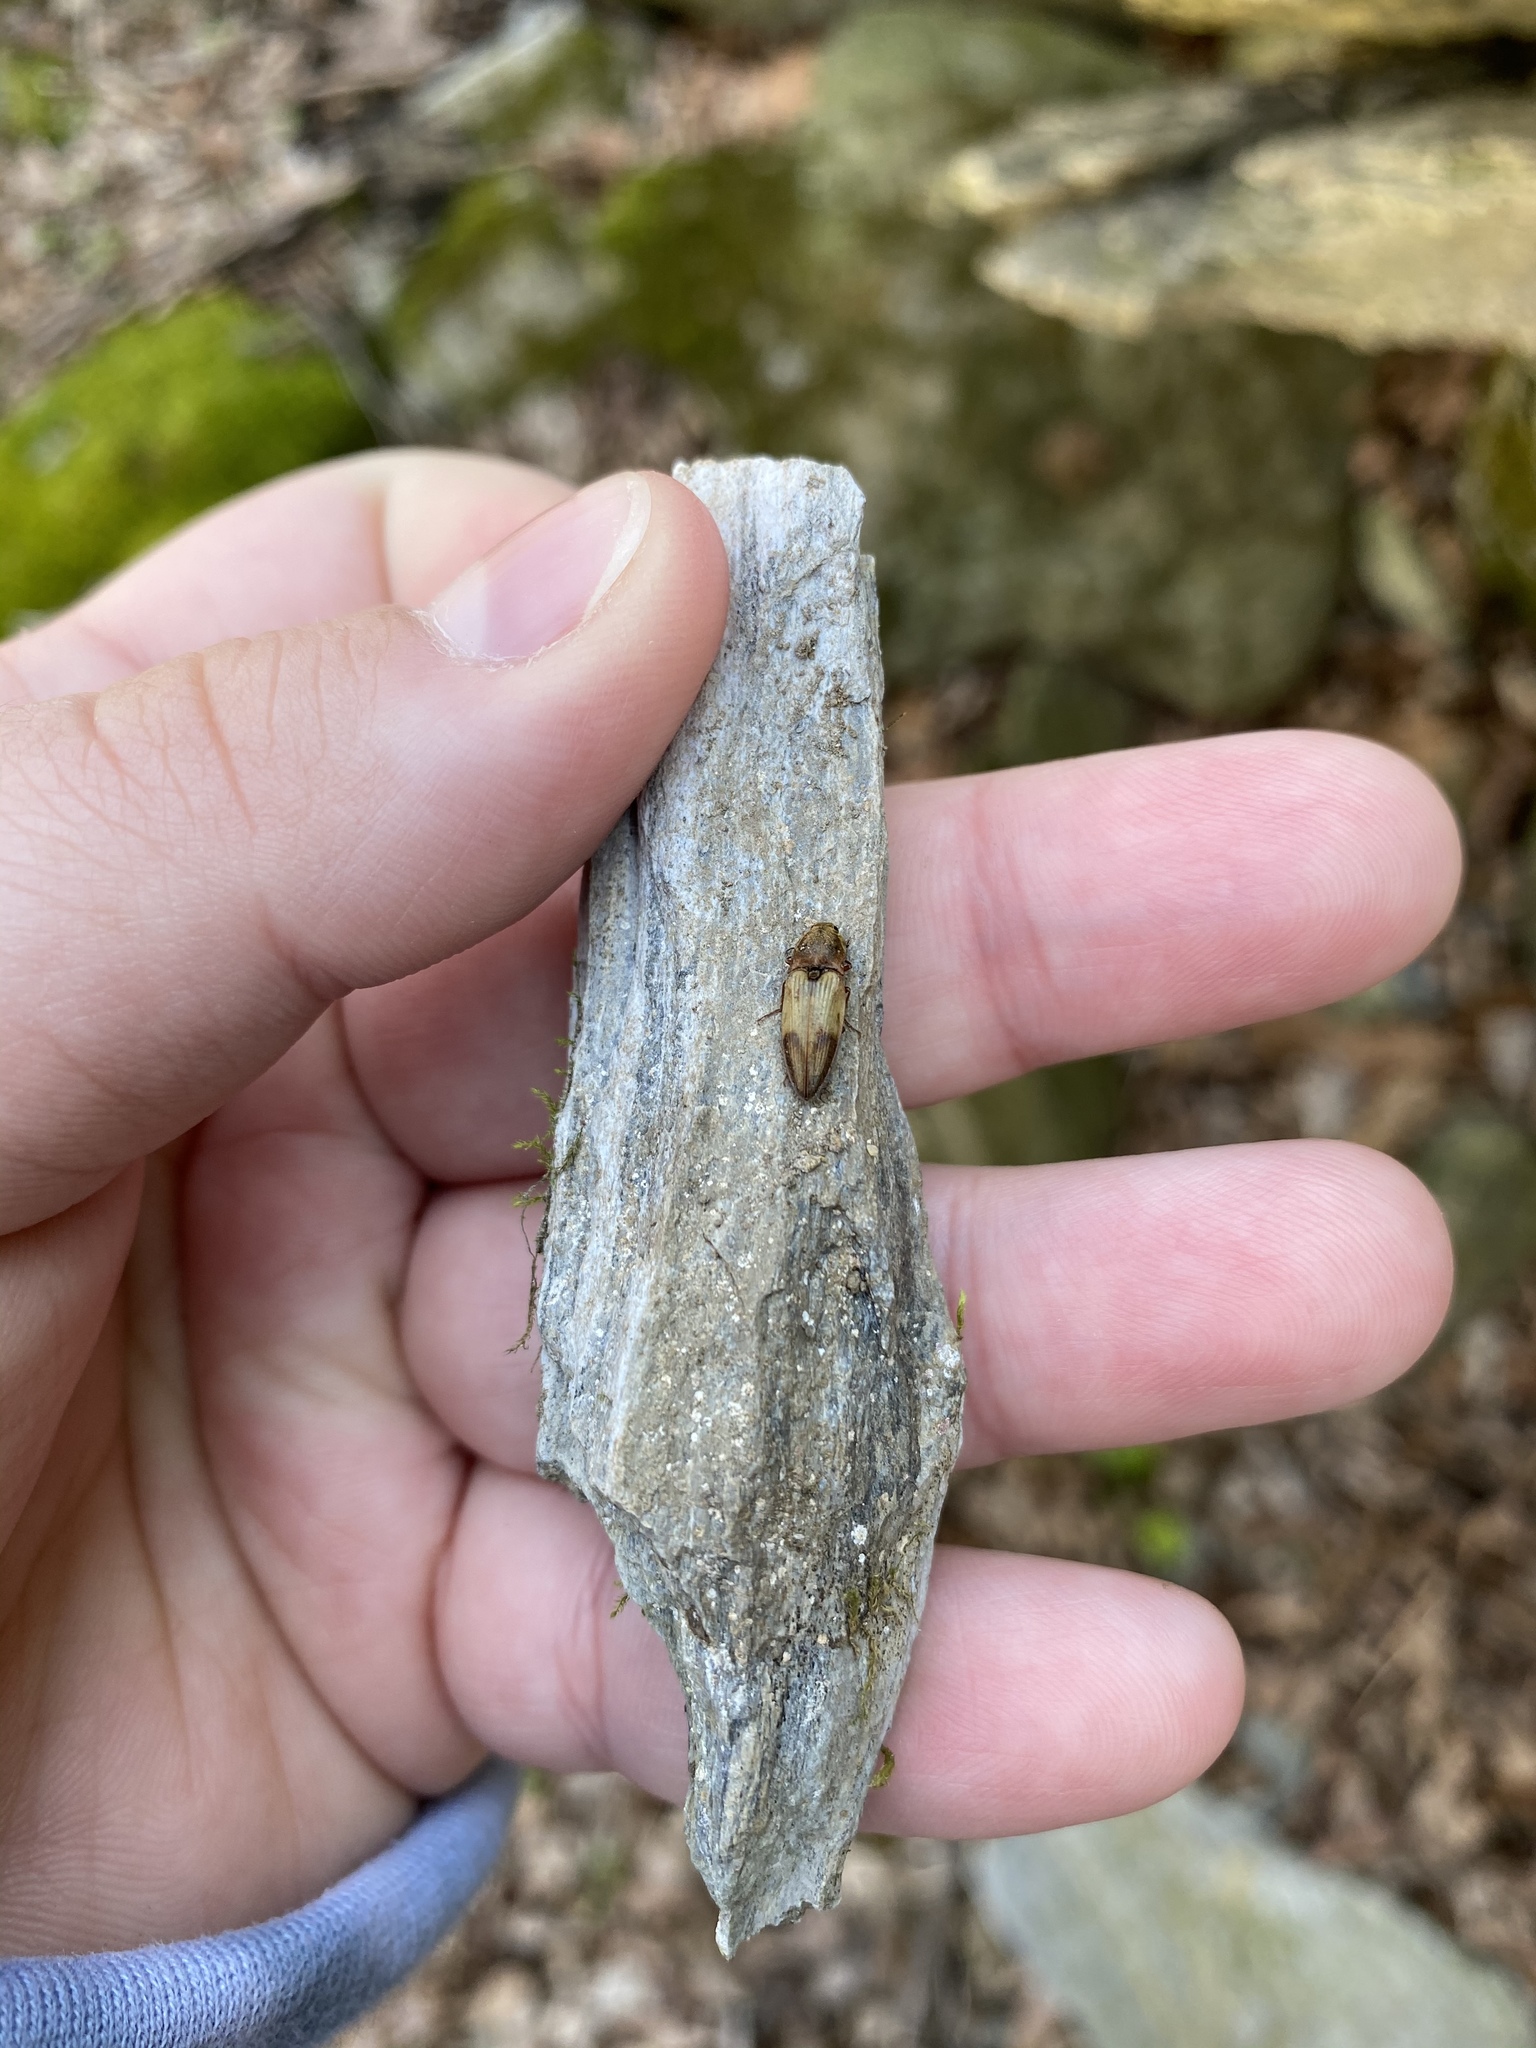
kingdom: Animalia
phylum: Arthropoda
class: Insecta
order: Coleoptera
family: Elateridae
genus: Stropenron
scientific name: Stropenron hamata
